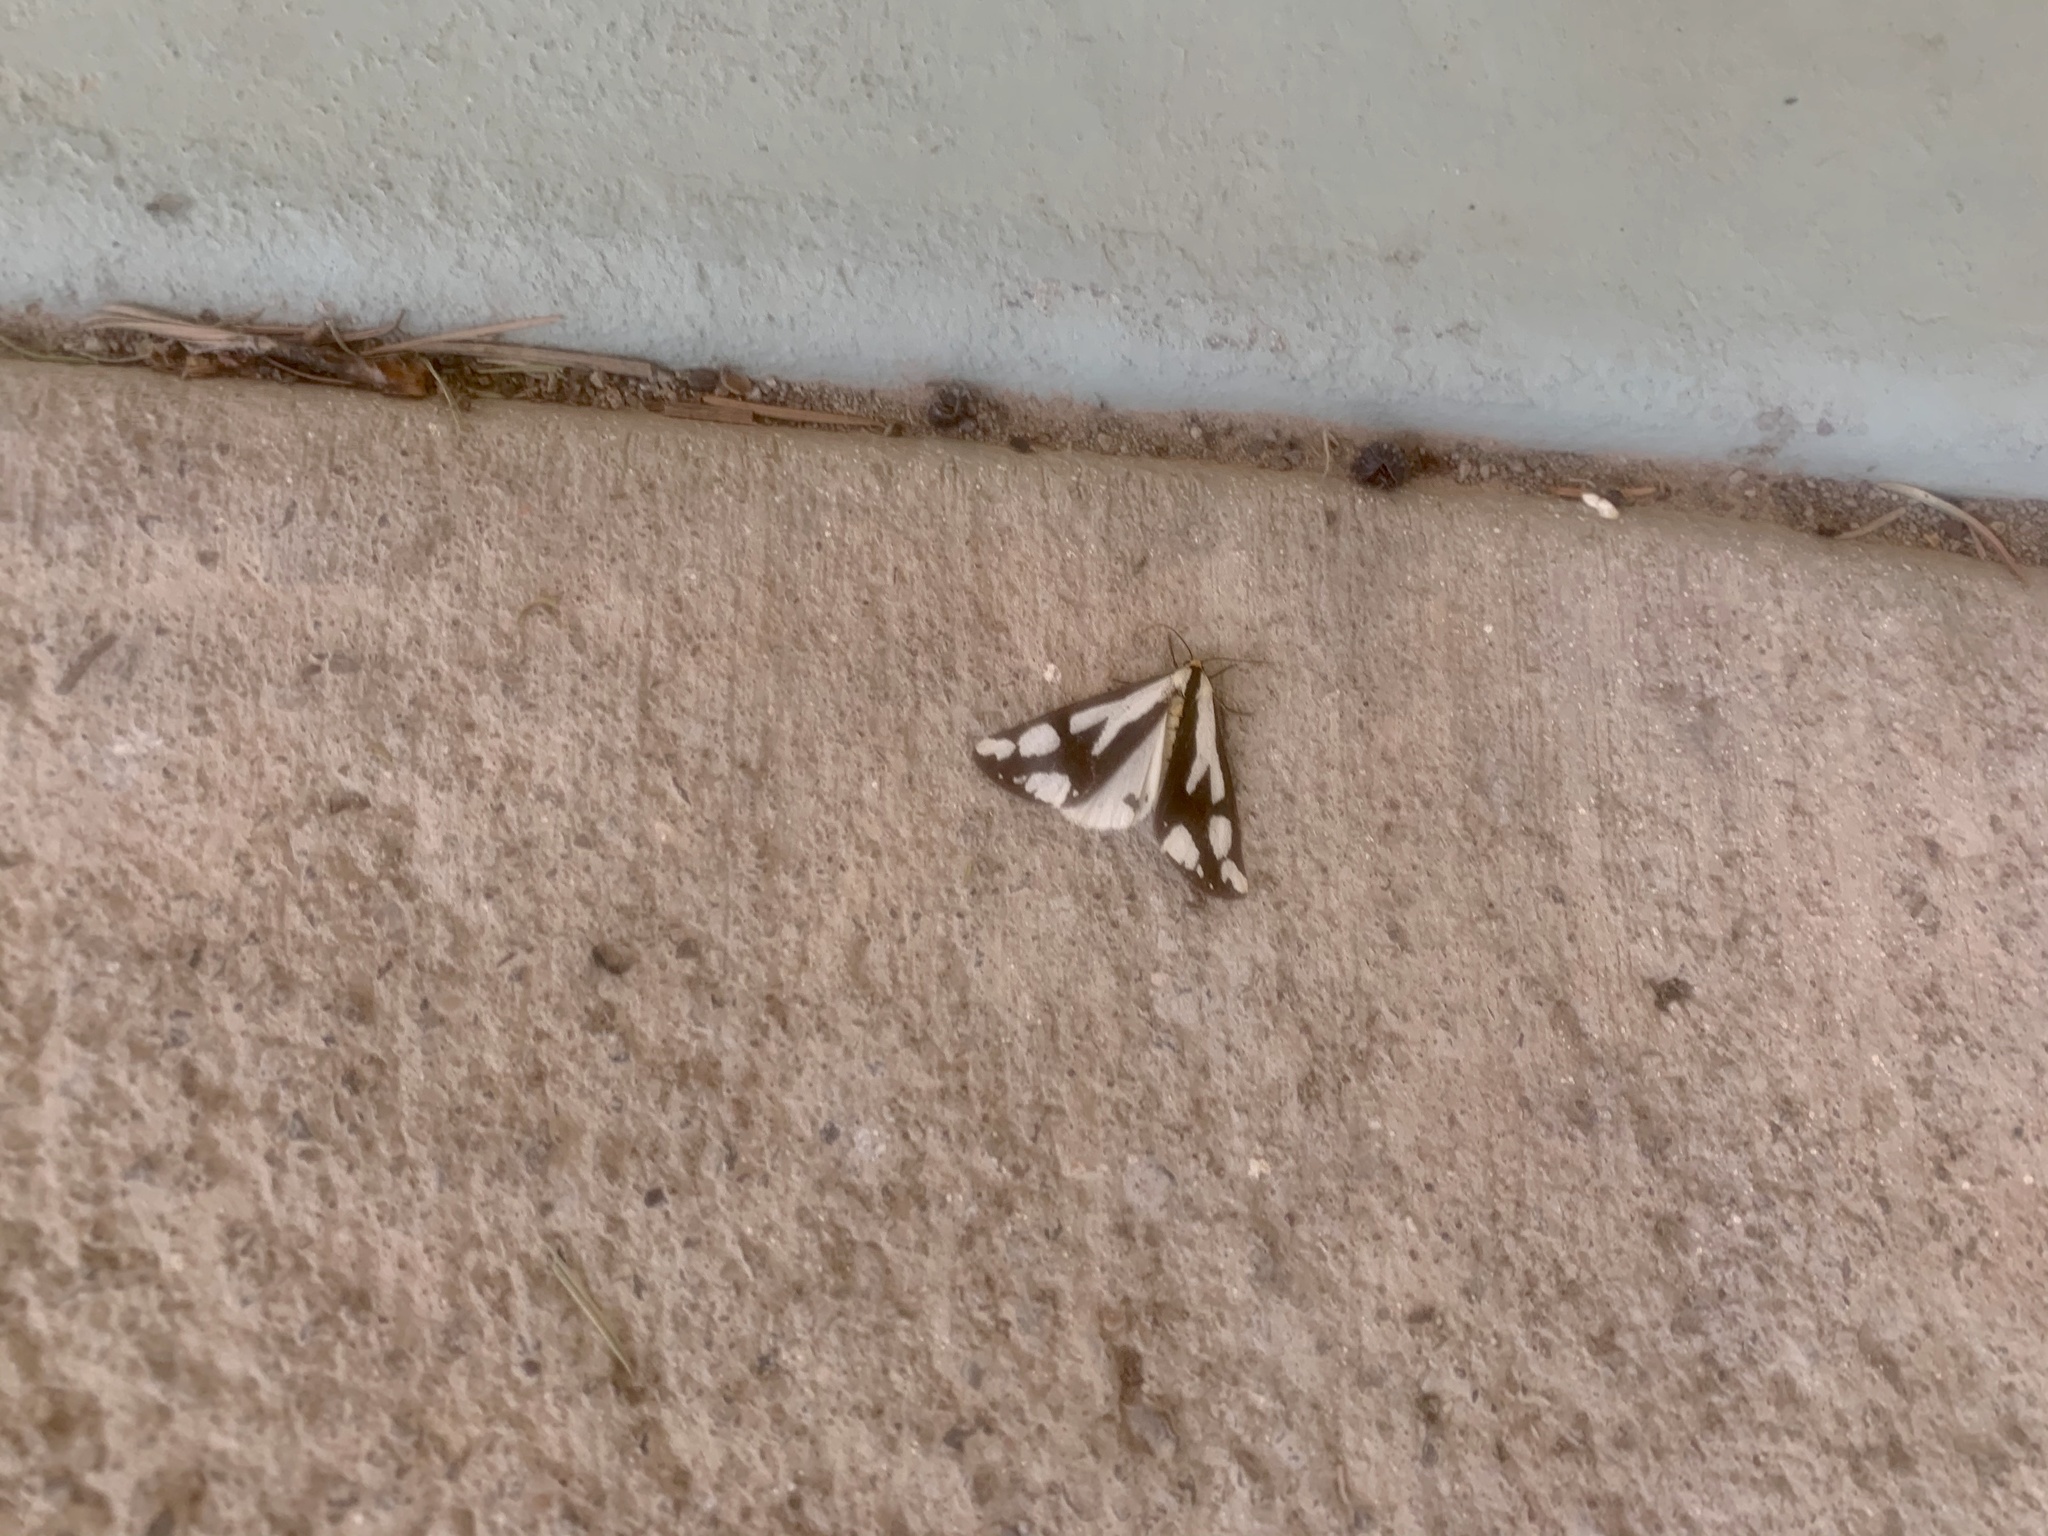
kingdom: Animalia
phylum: Arthropoda
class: Insecta
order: Lepidoptera
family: Erebidae
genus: Haploa
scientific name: Haploa reversa
